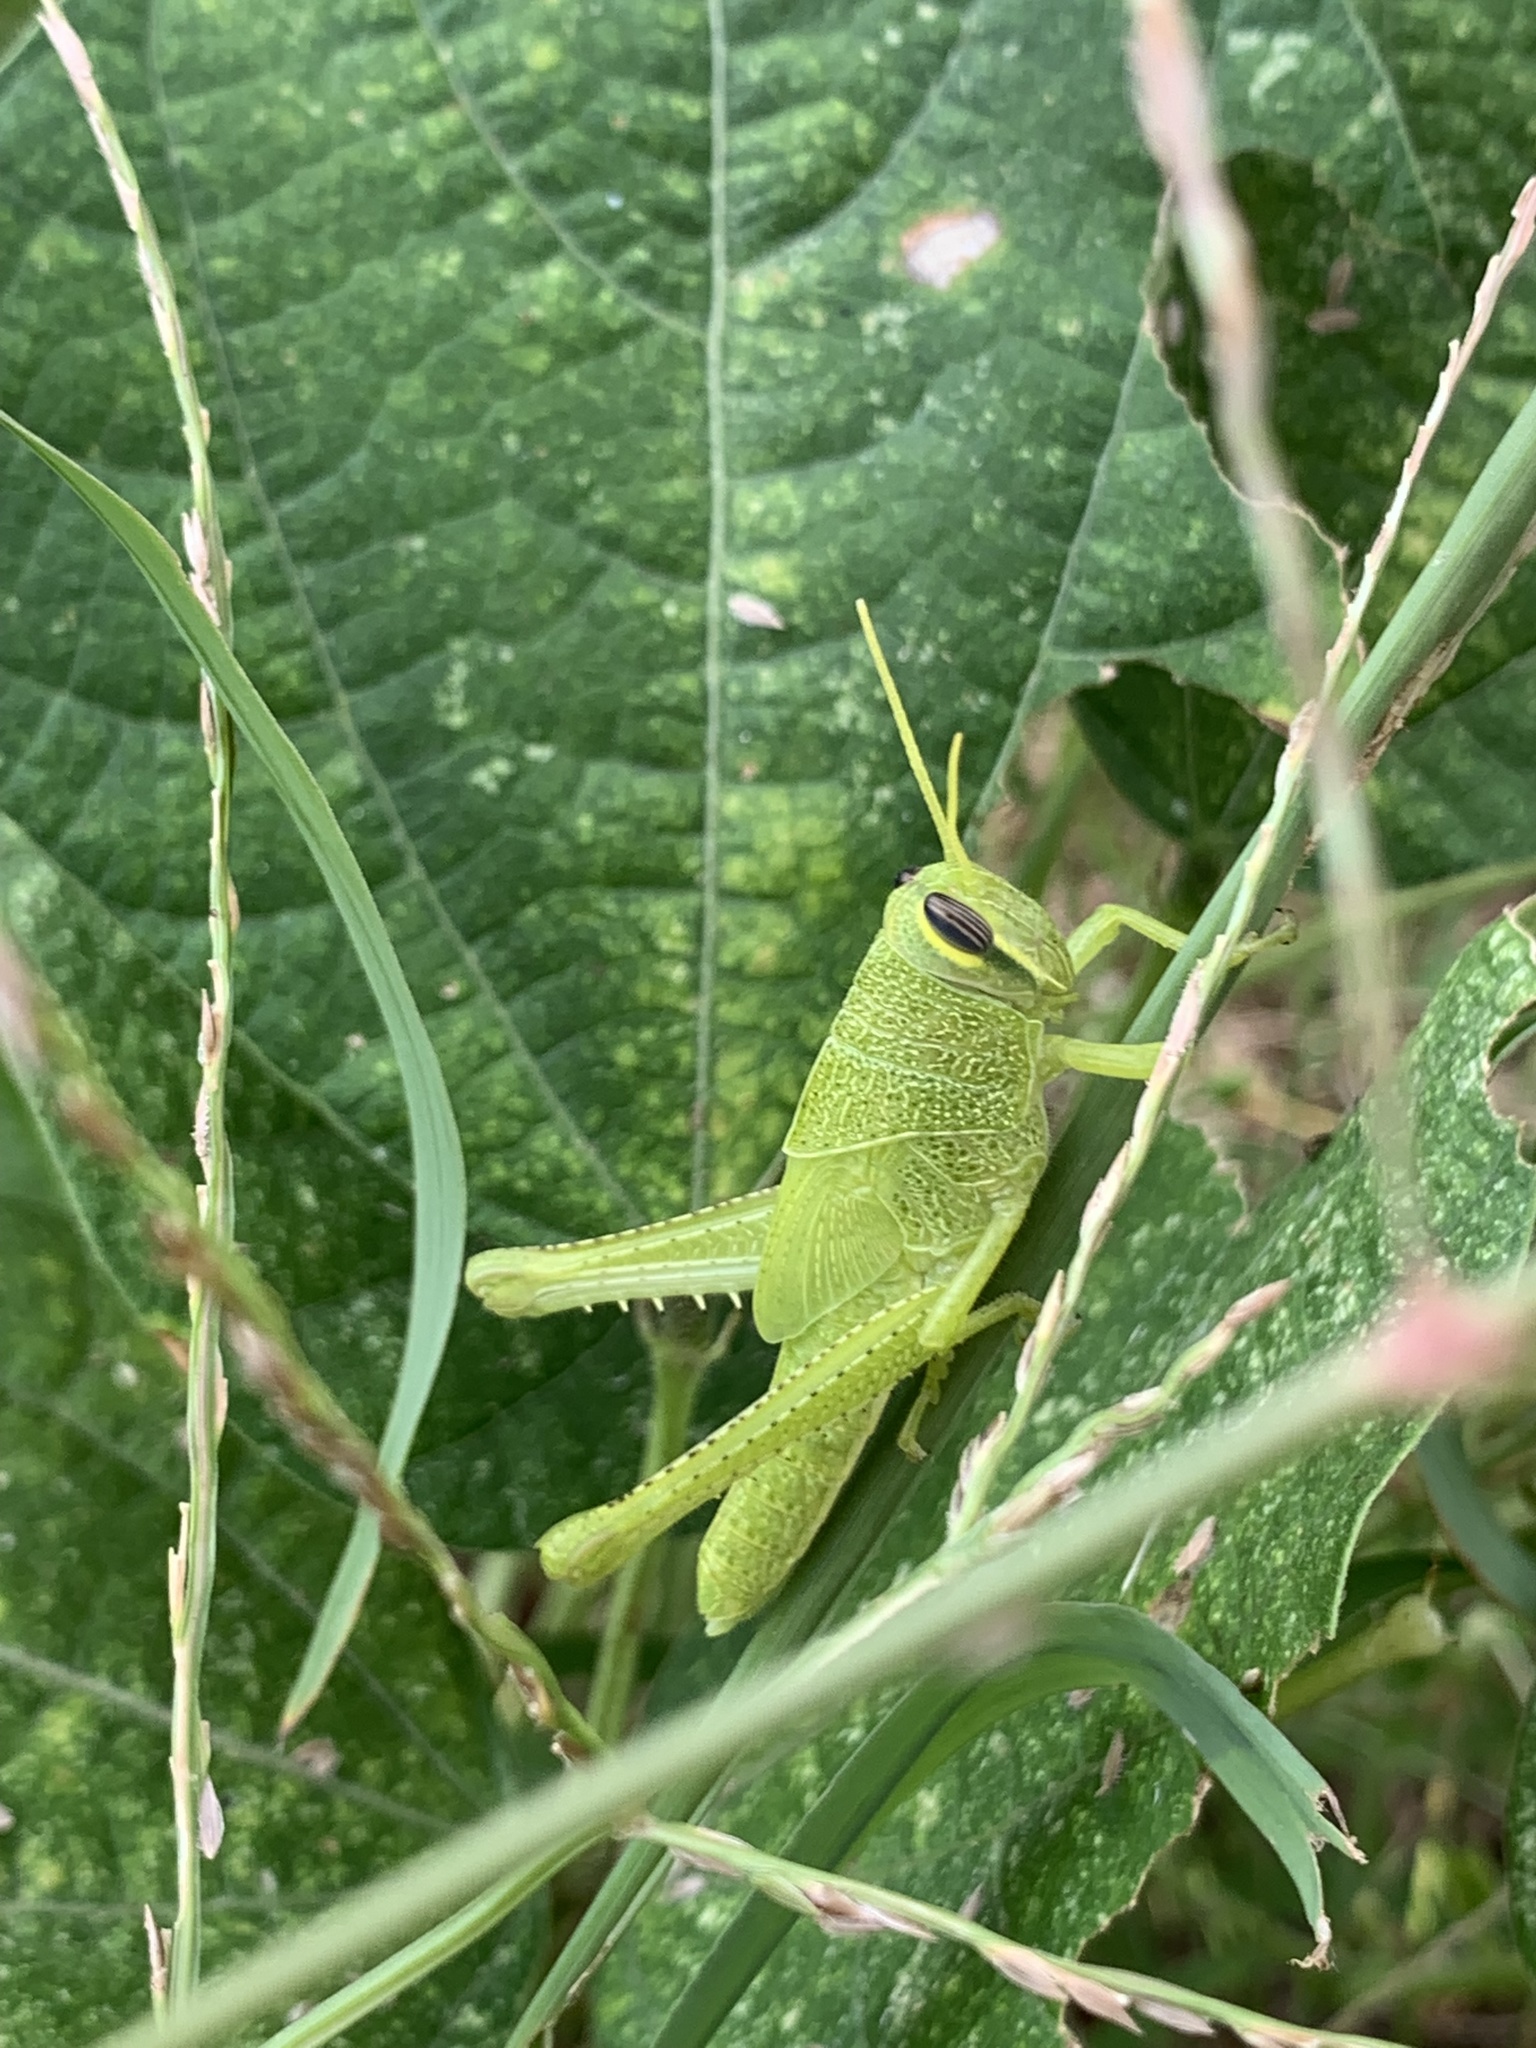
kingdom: Animalia
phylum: Arthropoda
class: Insecta
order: Orthoptera
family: Acrididae
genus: Schistocerca
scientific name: Schistocerca obscura
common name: Obscure bird grasshopper
